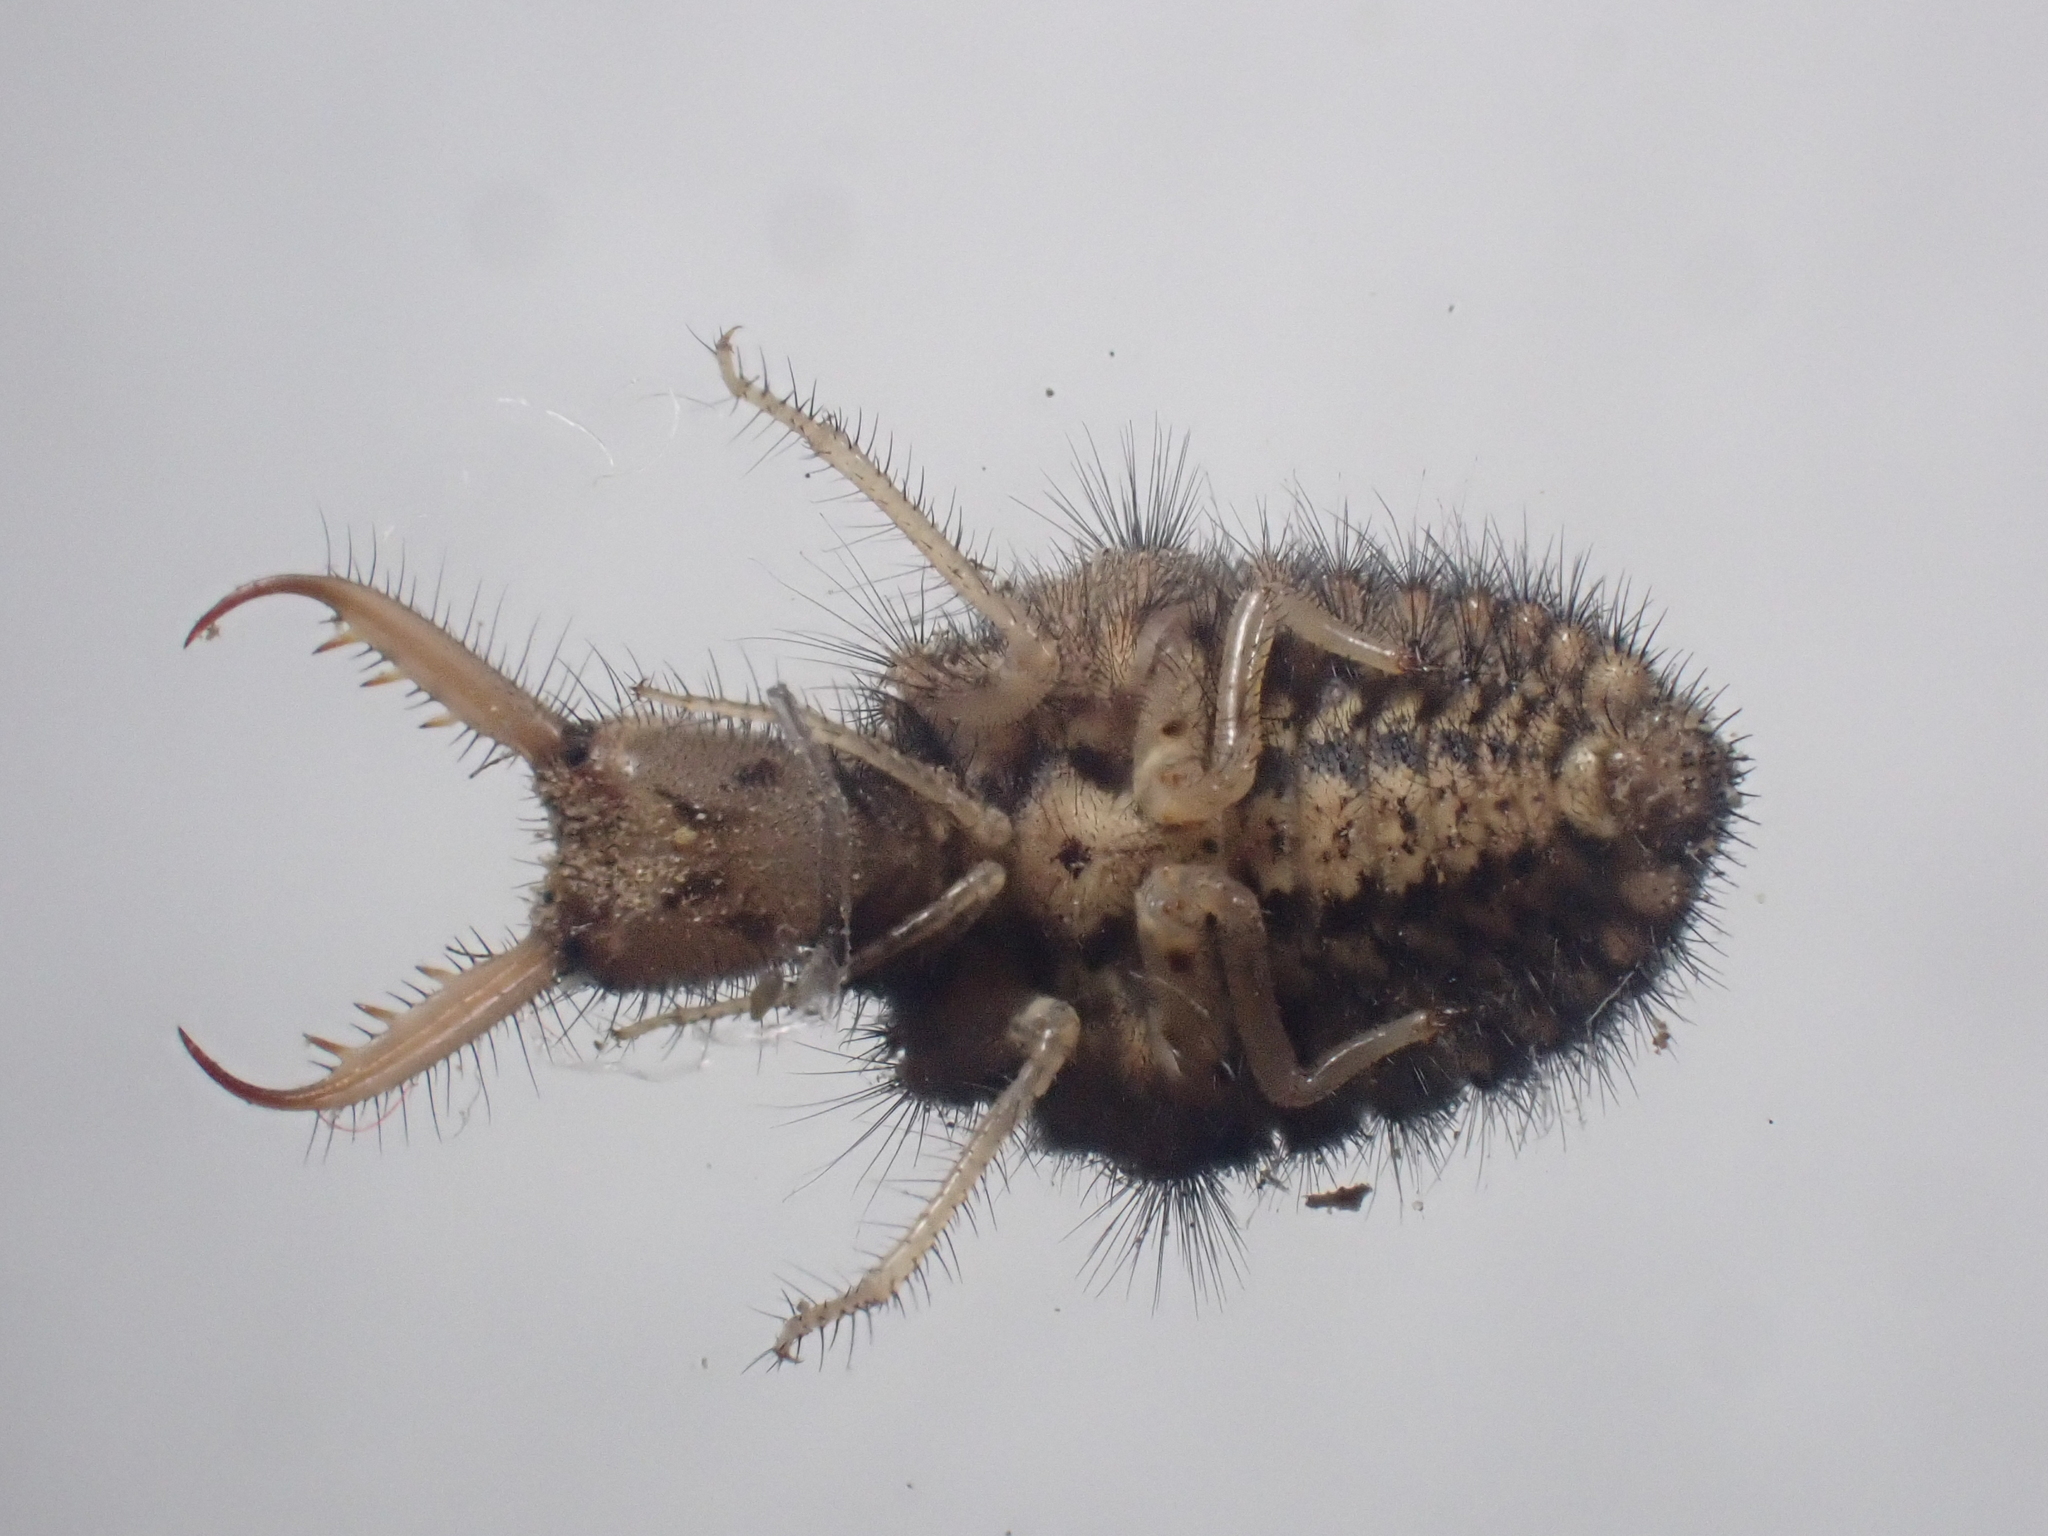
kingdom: Animalia
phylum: Arthropoda
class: Insecta
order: Neuroptera
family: Myrmeleontidae
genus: Myrmeleon
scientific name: Myrmeleon immaculatus
